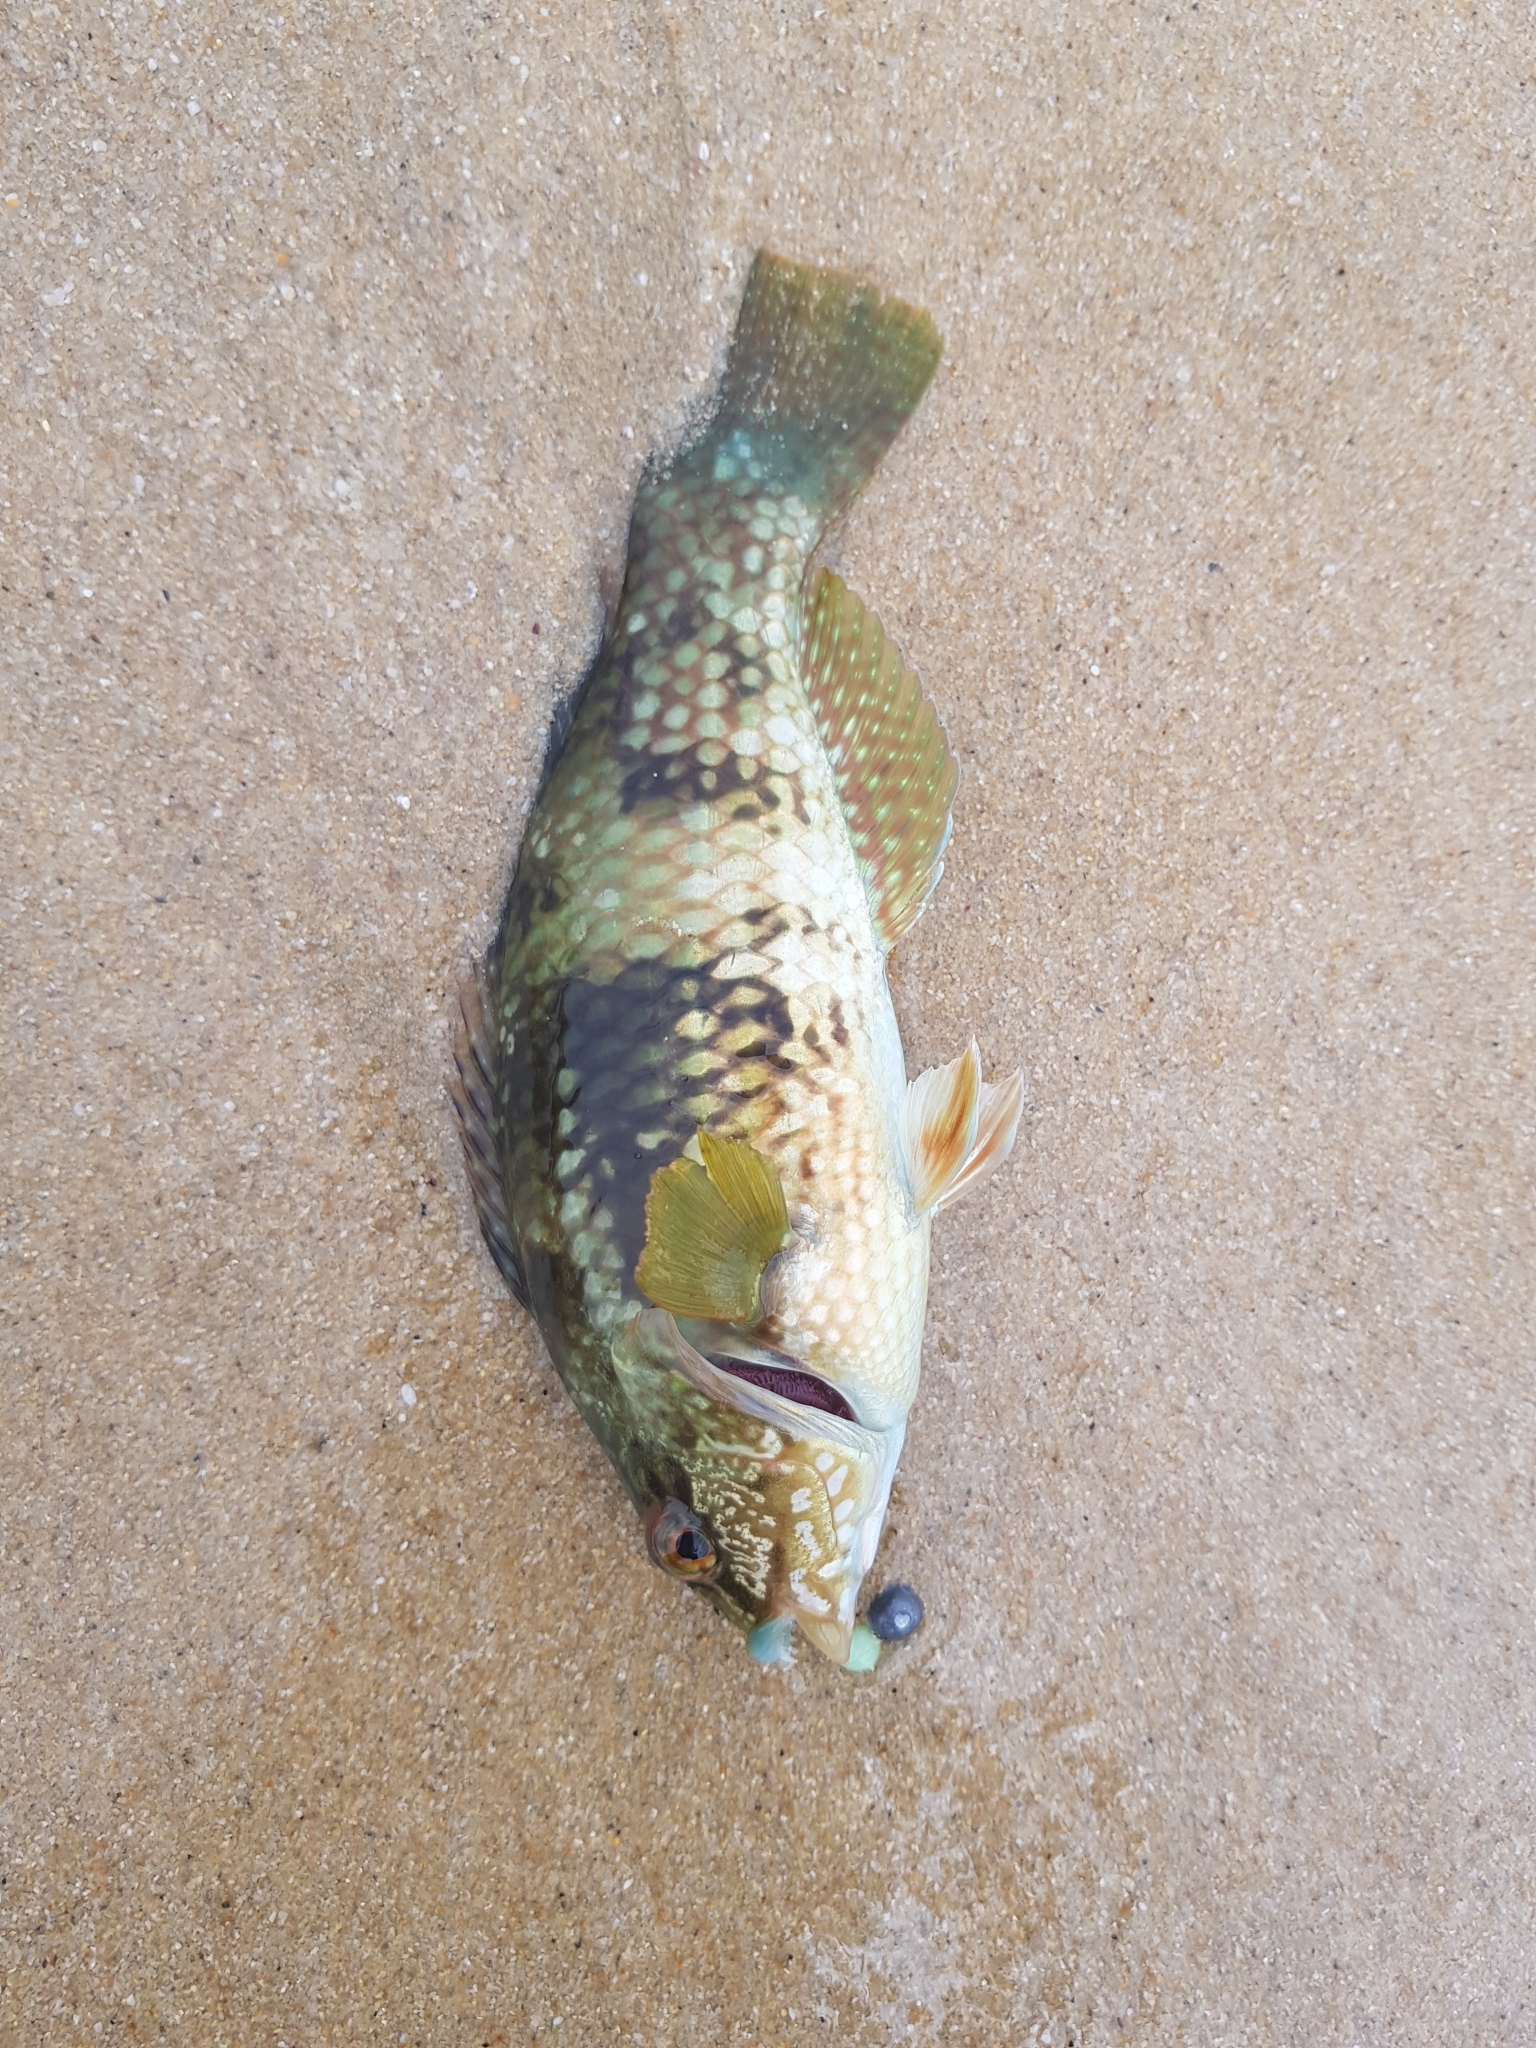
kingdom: Animalia
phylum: Chordata
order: Perciformes
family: Labridae
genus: Notolabrus
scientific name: Notolabrus tetricus
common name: Blue-throated parrotfish
